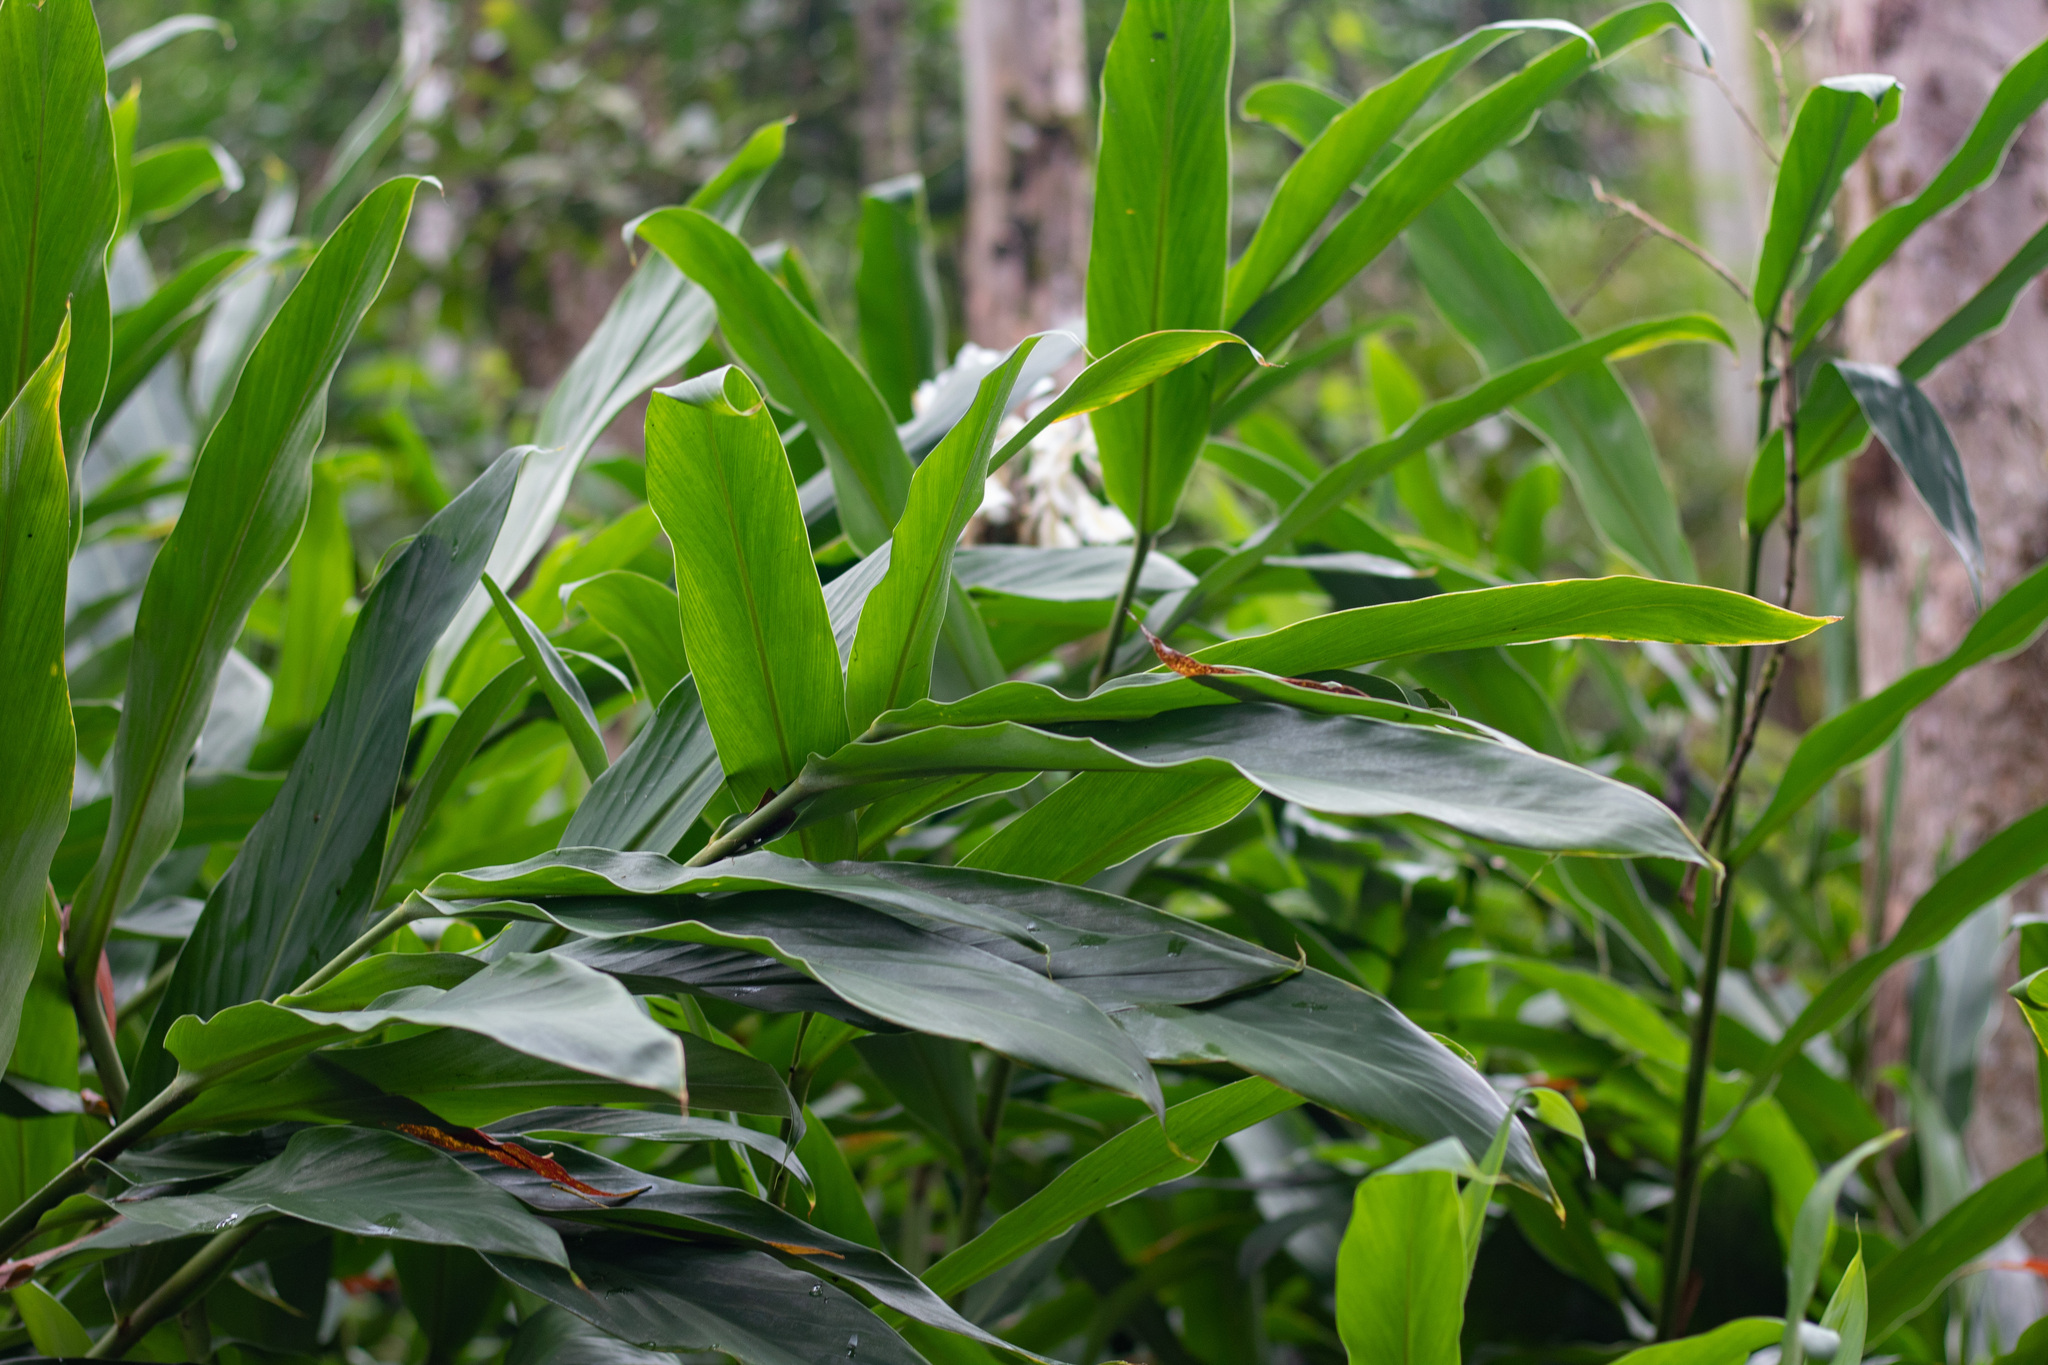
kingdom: Plantae
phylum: Tracheophyta
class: Liliopsida
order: Zingiberales
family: Zingiberaceae
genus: Hedychium
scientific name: Hedychium coronarium
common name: White garland-lily
